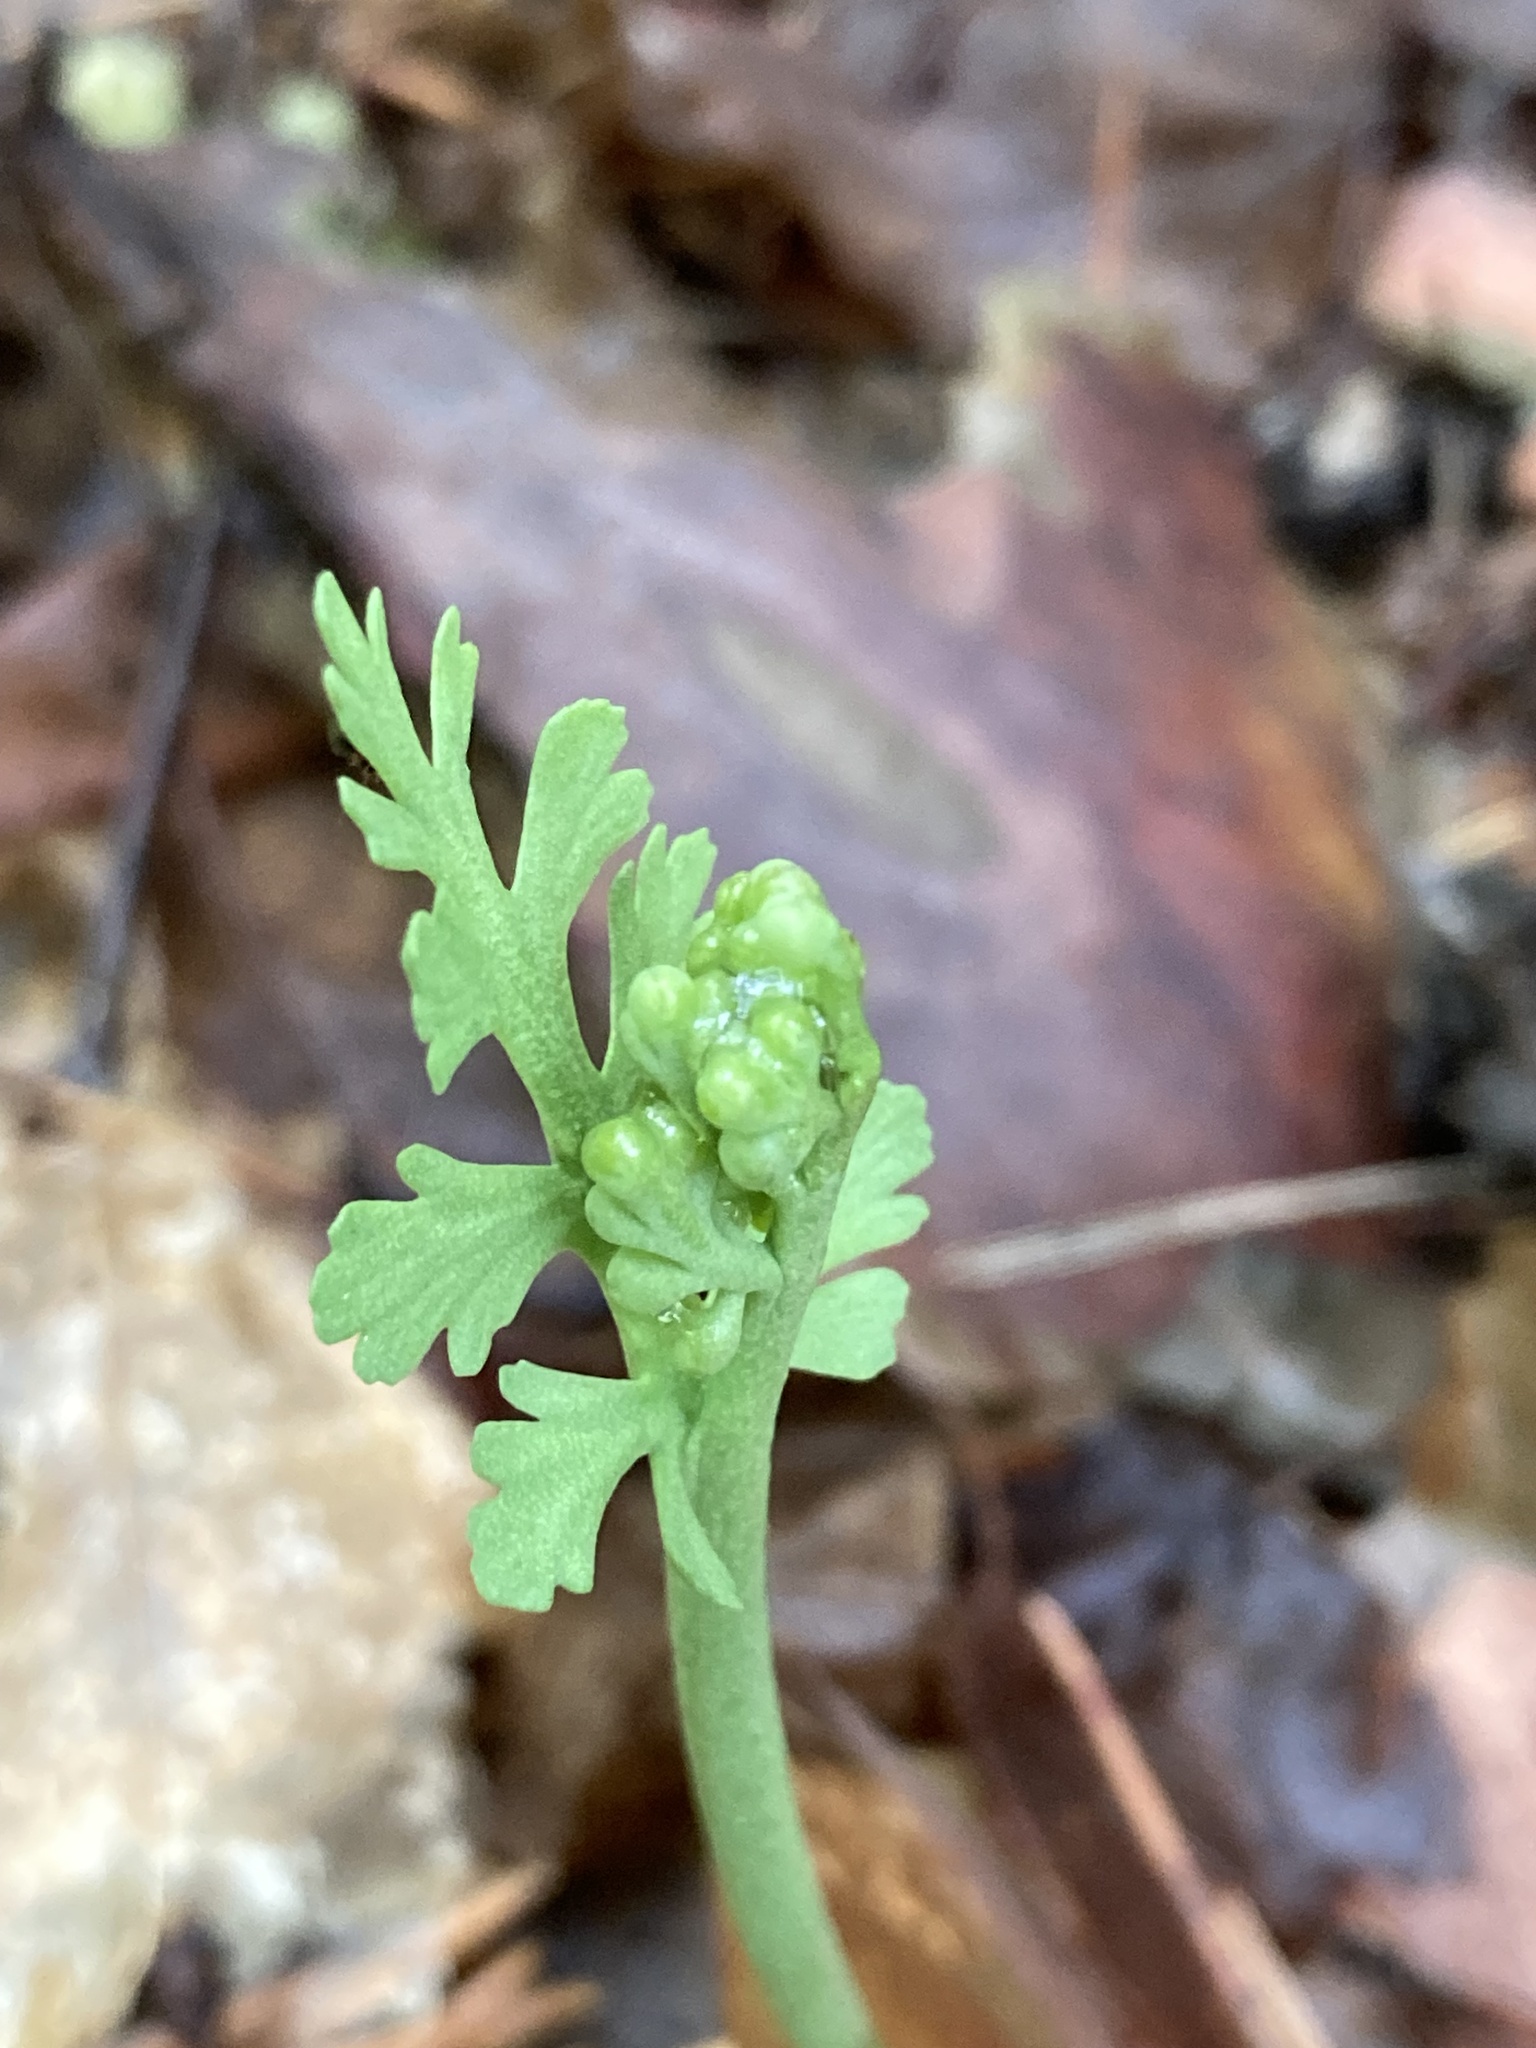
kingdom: Plantae
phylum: Tracheophyta
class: Polypodiopsida
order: Ophioglossales
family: Ophioglossaceae
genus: Botrychium
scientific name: Botrychium matricariifolium
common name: Branched moonwort
